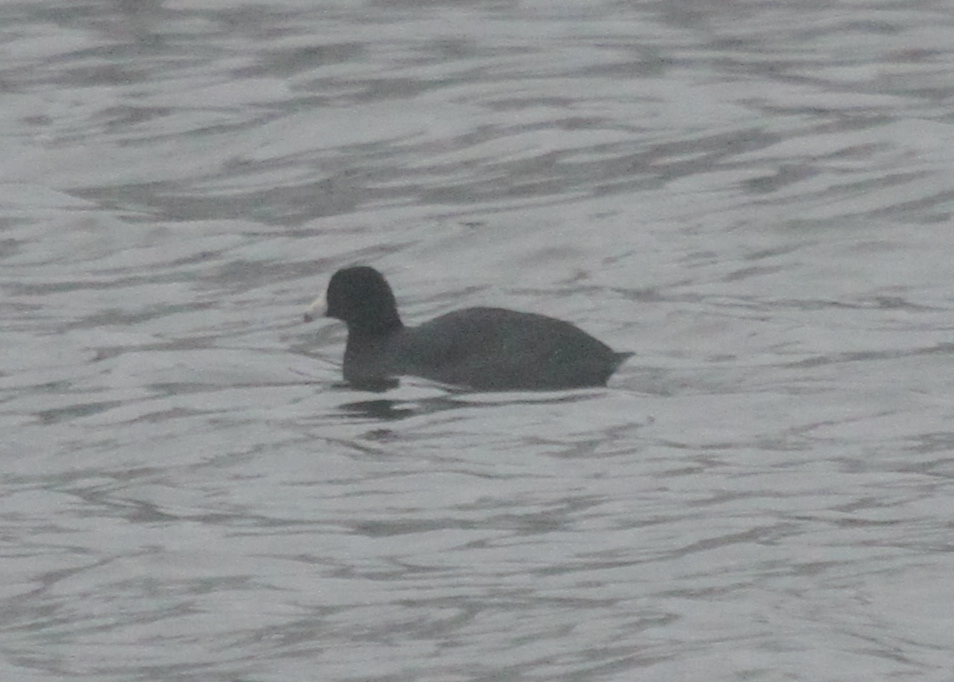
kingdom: Animalia
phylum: Chordata
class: Aves
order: Gruiformes
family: Rallidae
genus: Fulica
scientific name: Fulica americana
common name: American coot
